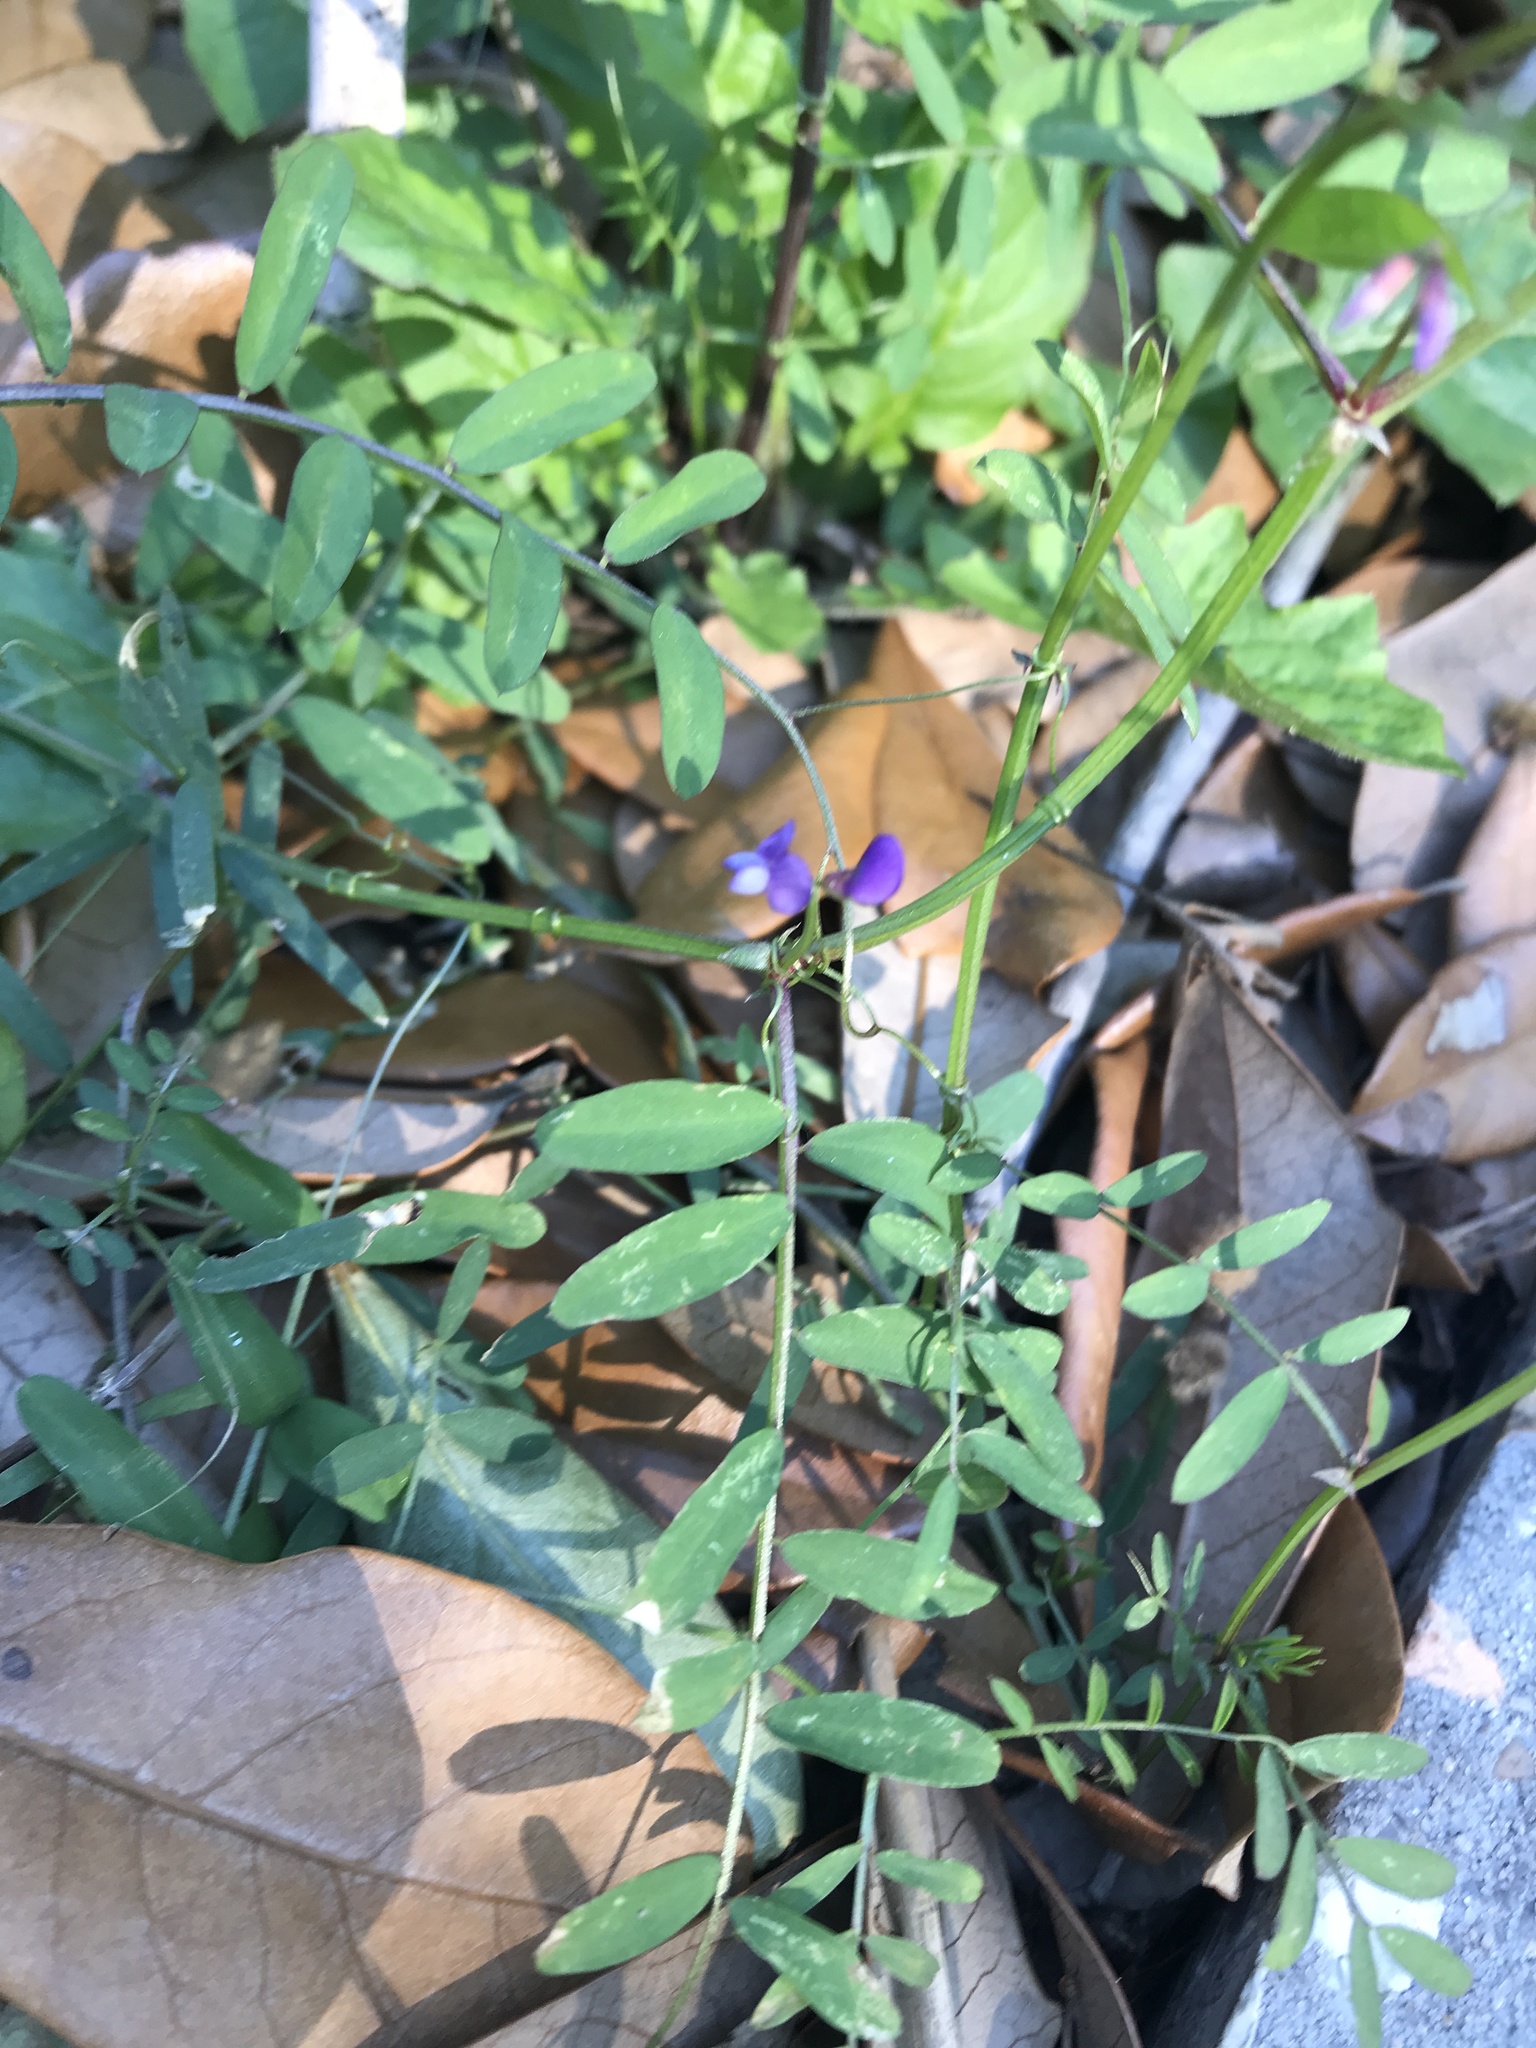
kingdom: Plantae
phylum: Tracheophyta
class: Magnoliopsida
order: Fabales
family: Fabaceae
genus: Vicia
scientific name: Vicia ludoviciana
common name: Louisiana vetch
